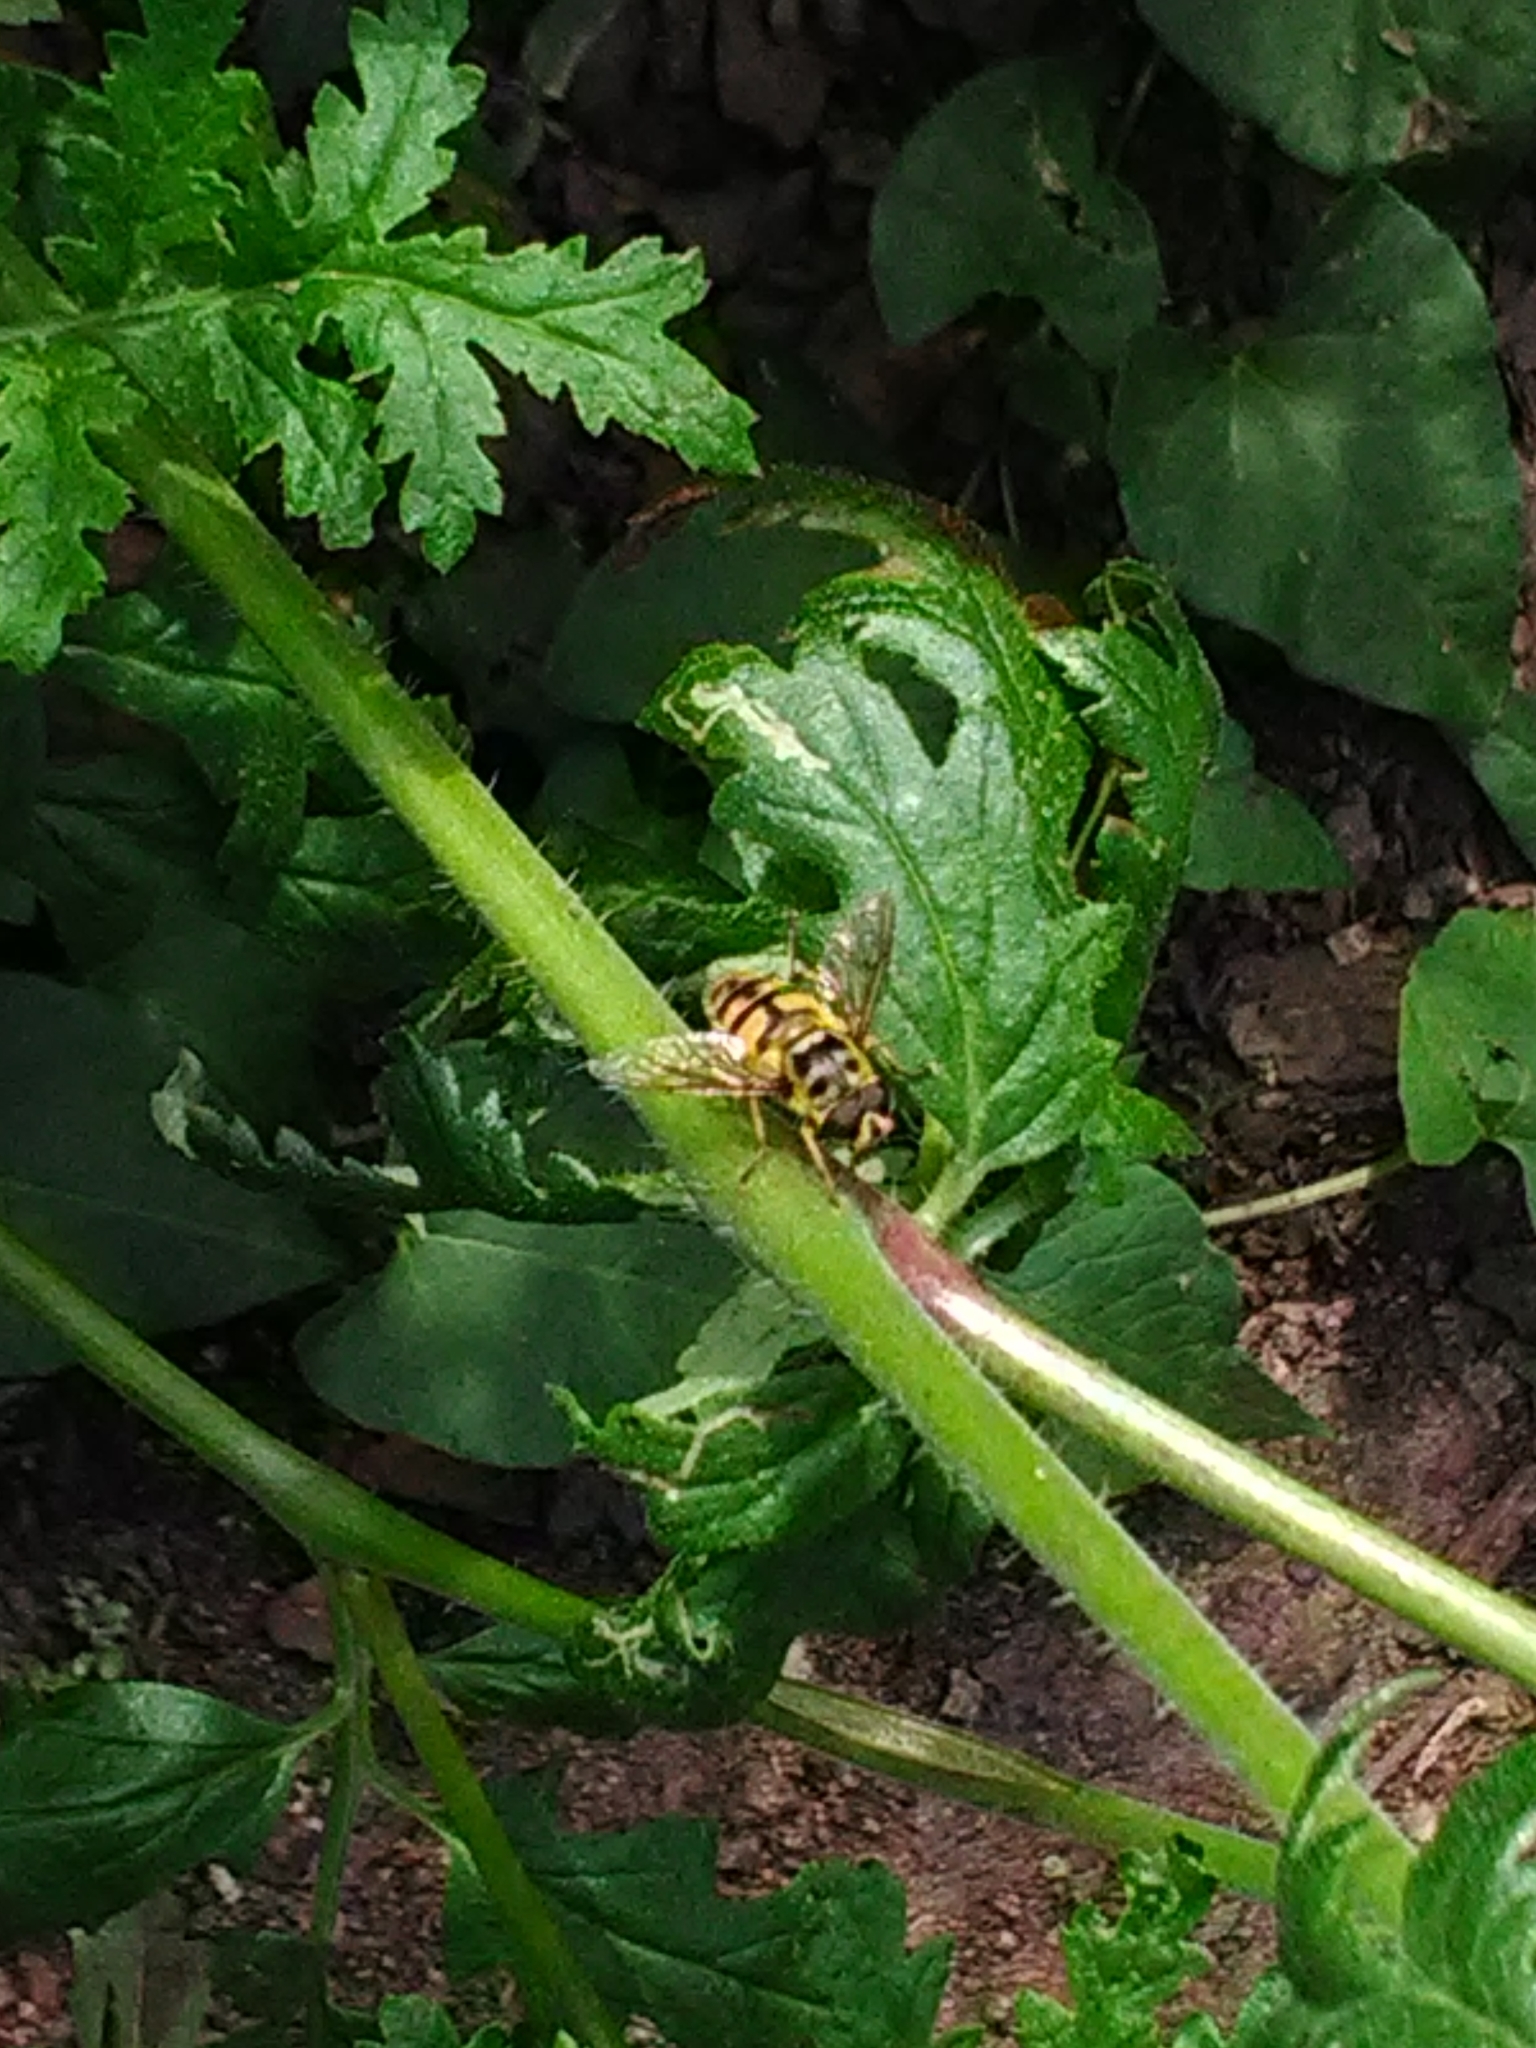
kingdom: Animalia
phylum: Arthropoda
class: Insecta
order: Diptera
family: Syrphidae
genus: Myathropa
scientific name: Myathropa florea
